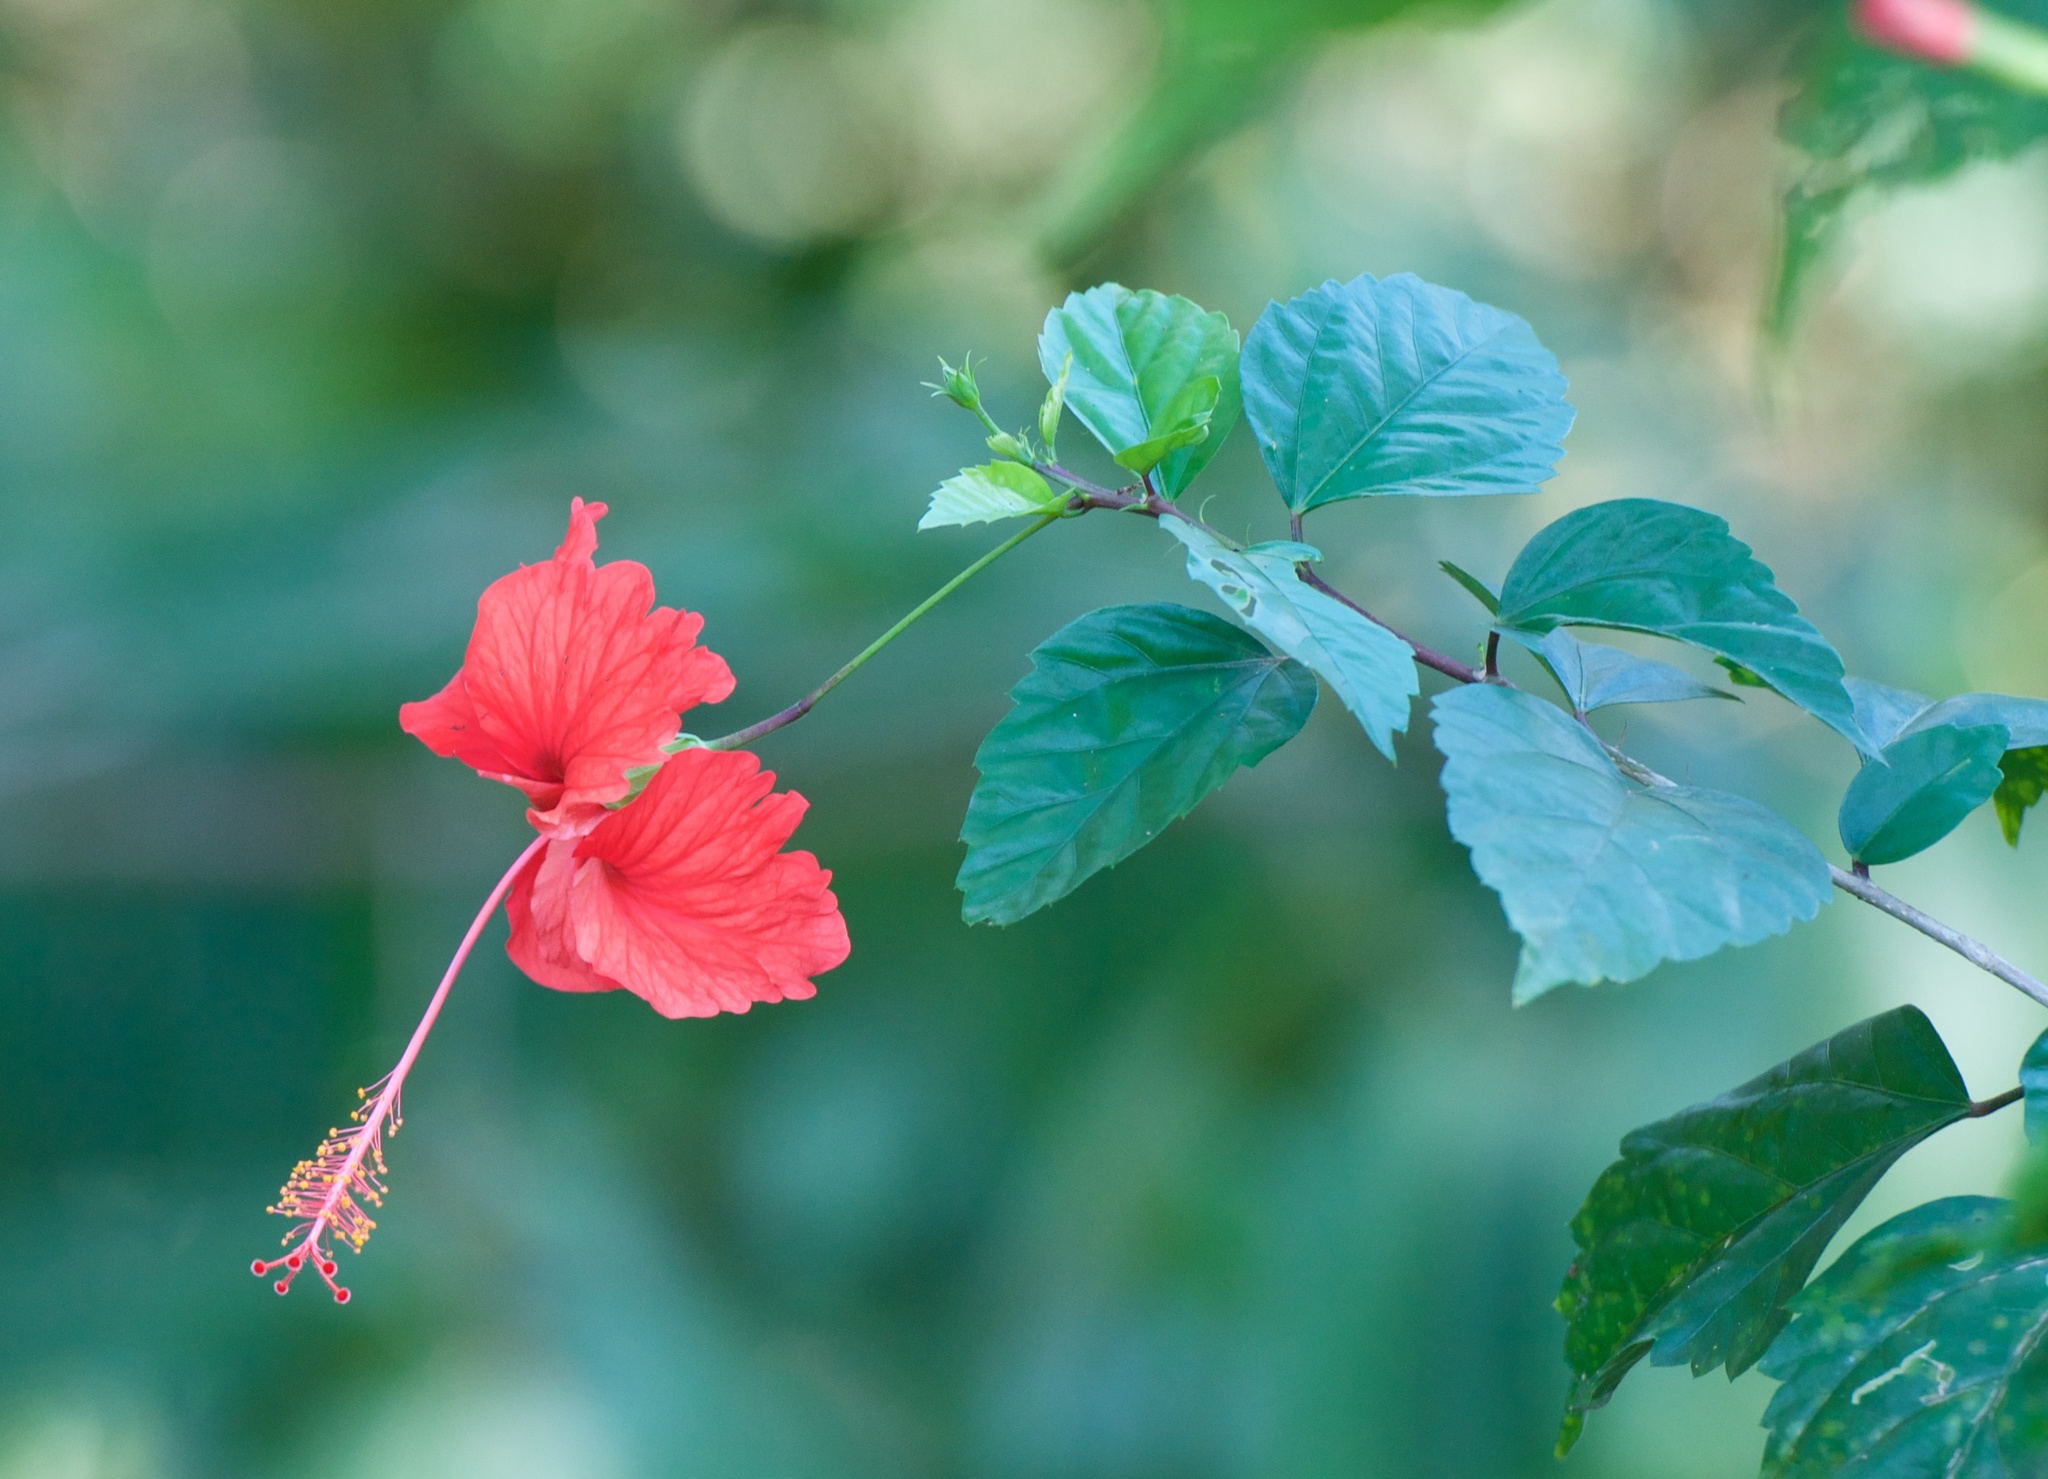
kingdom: Plantae
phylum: Tracheophyta
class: Magnoliopsida
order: Malvales
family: Malvaceae
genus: Hibiscus
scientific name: Hibiscus archeri
